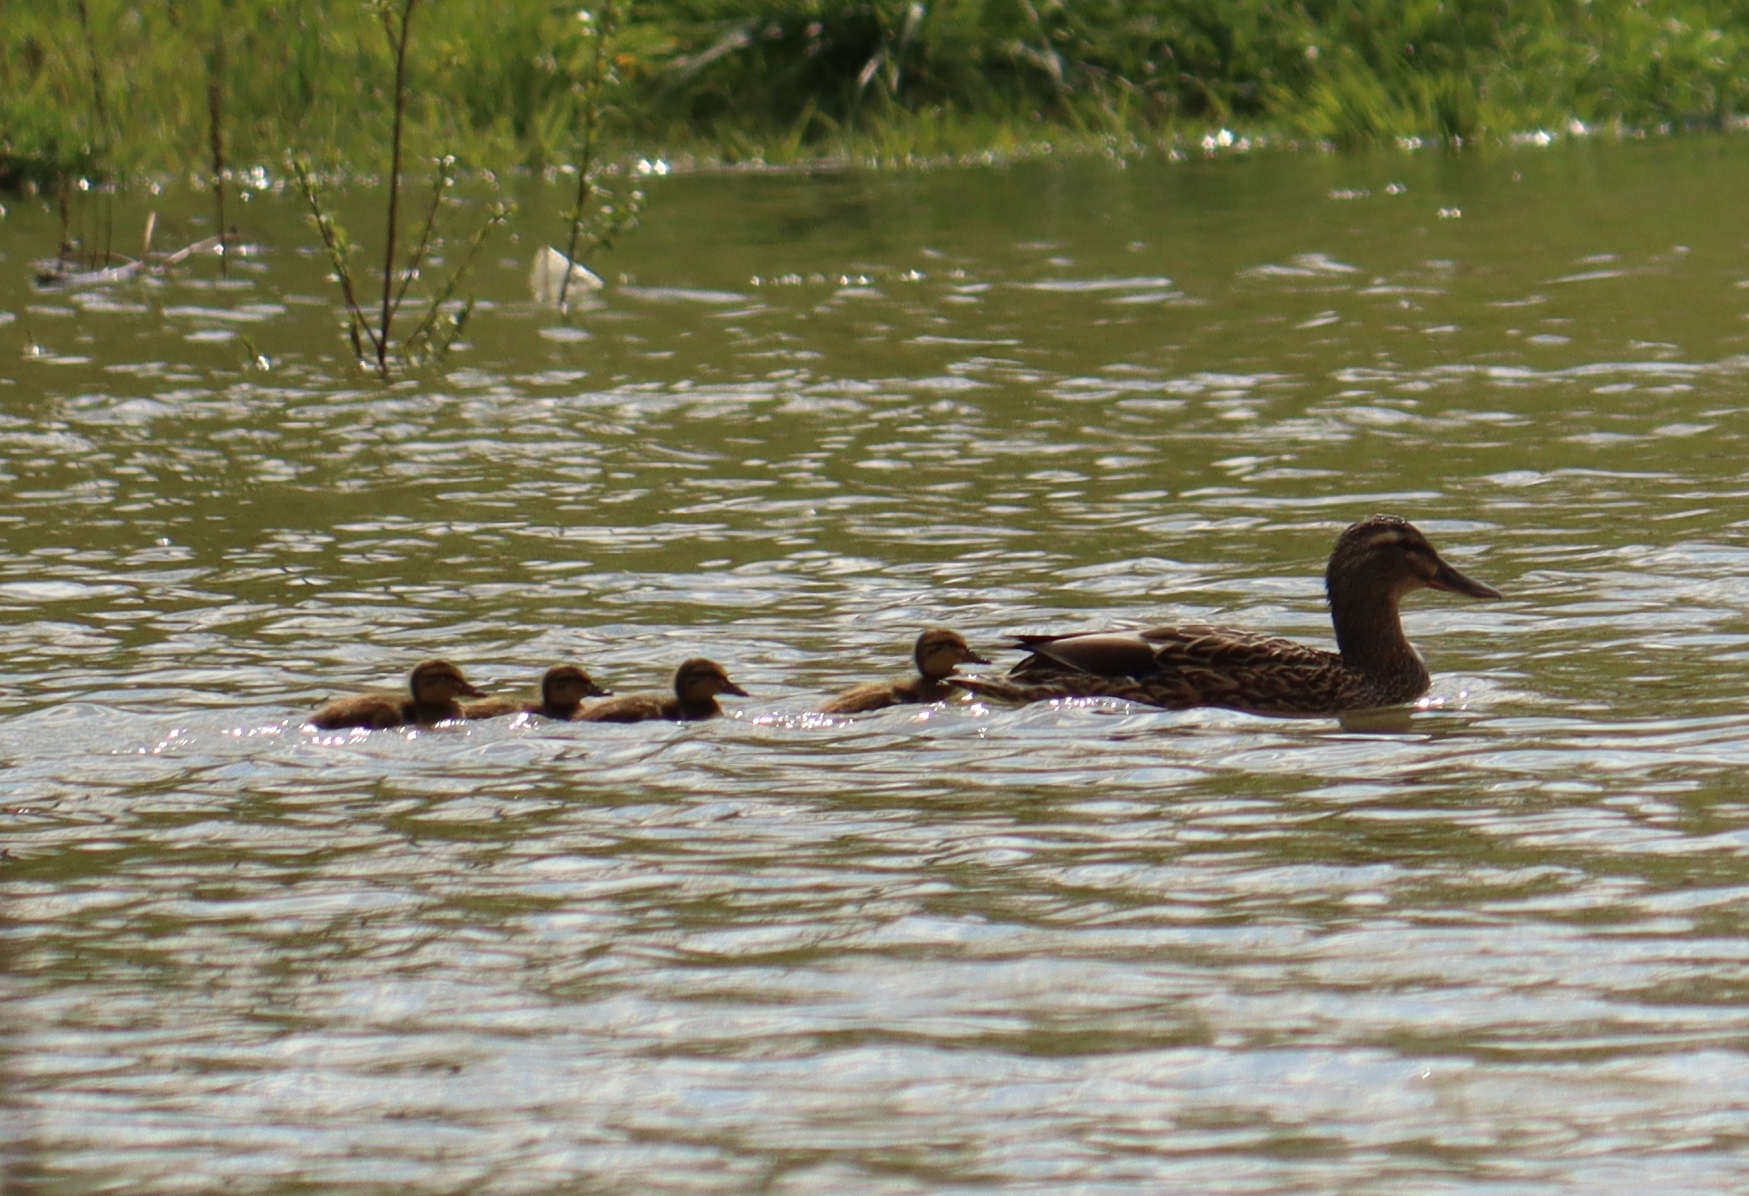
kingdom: Animalia
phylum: Chordata
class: Aves
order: Anseriformes
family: Anatidae
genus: Anas
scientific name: Anas platyrhynchos
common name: Mallard
